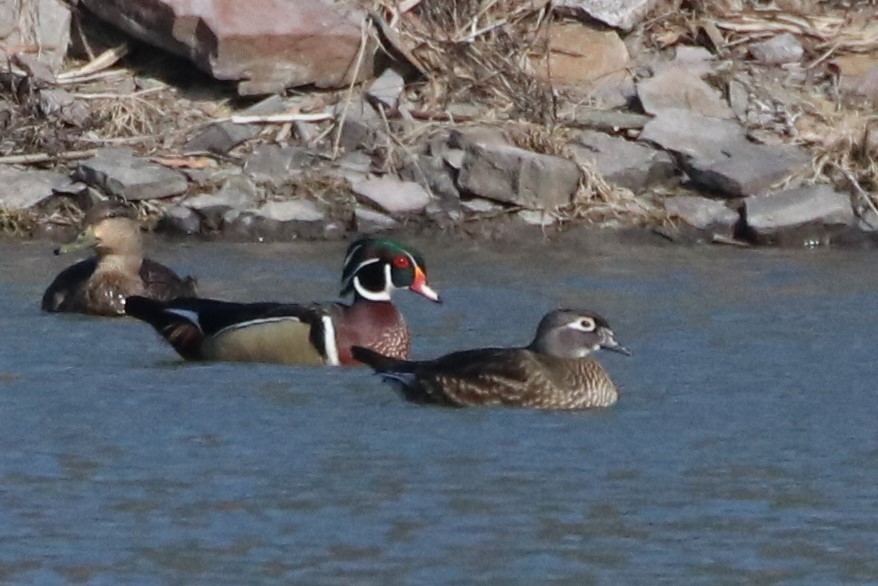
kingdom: Animalia
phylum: Chordata
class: Aves
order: Anseriformes
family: Anatidae
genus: Aix
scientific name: Aix sponsa
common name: Wood duck
